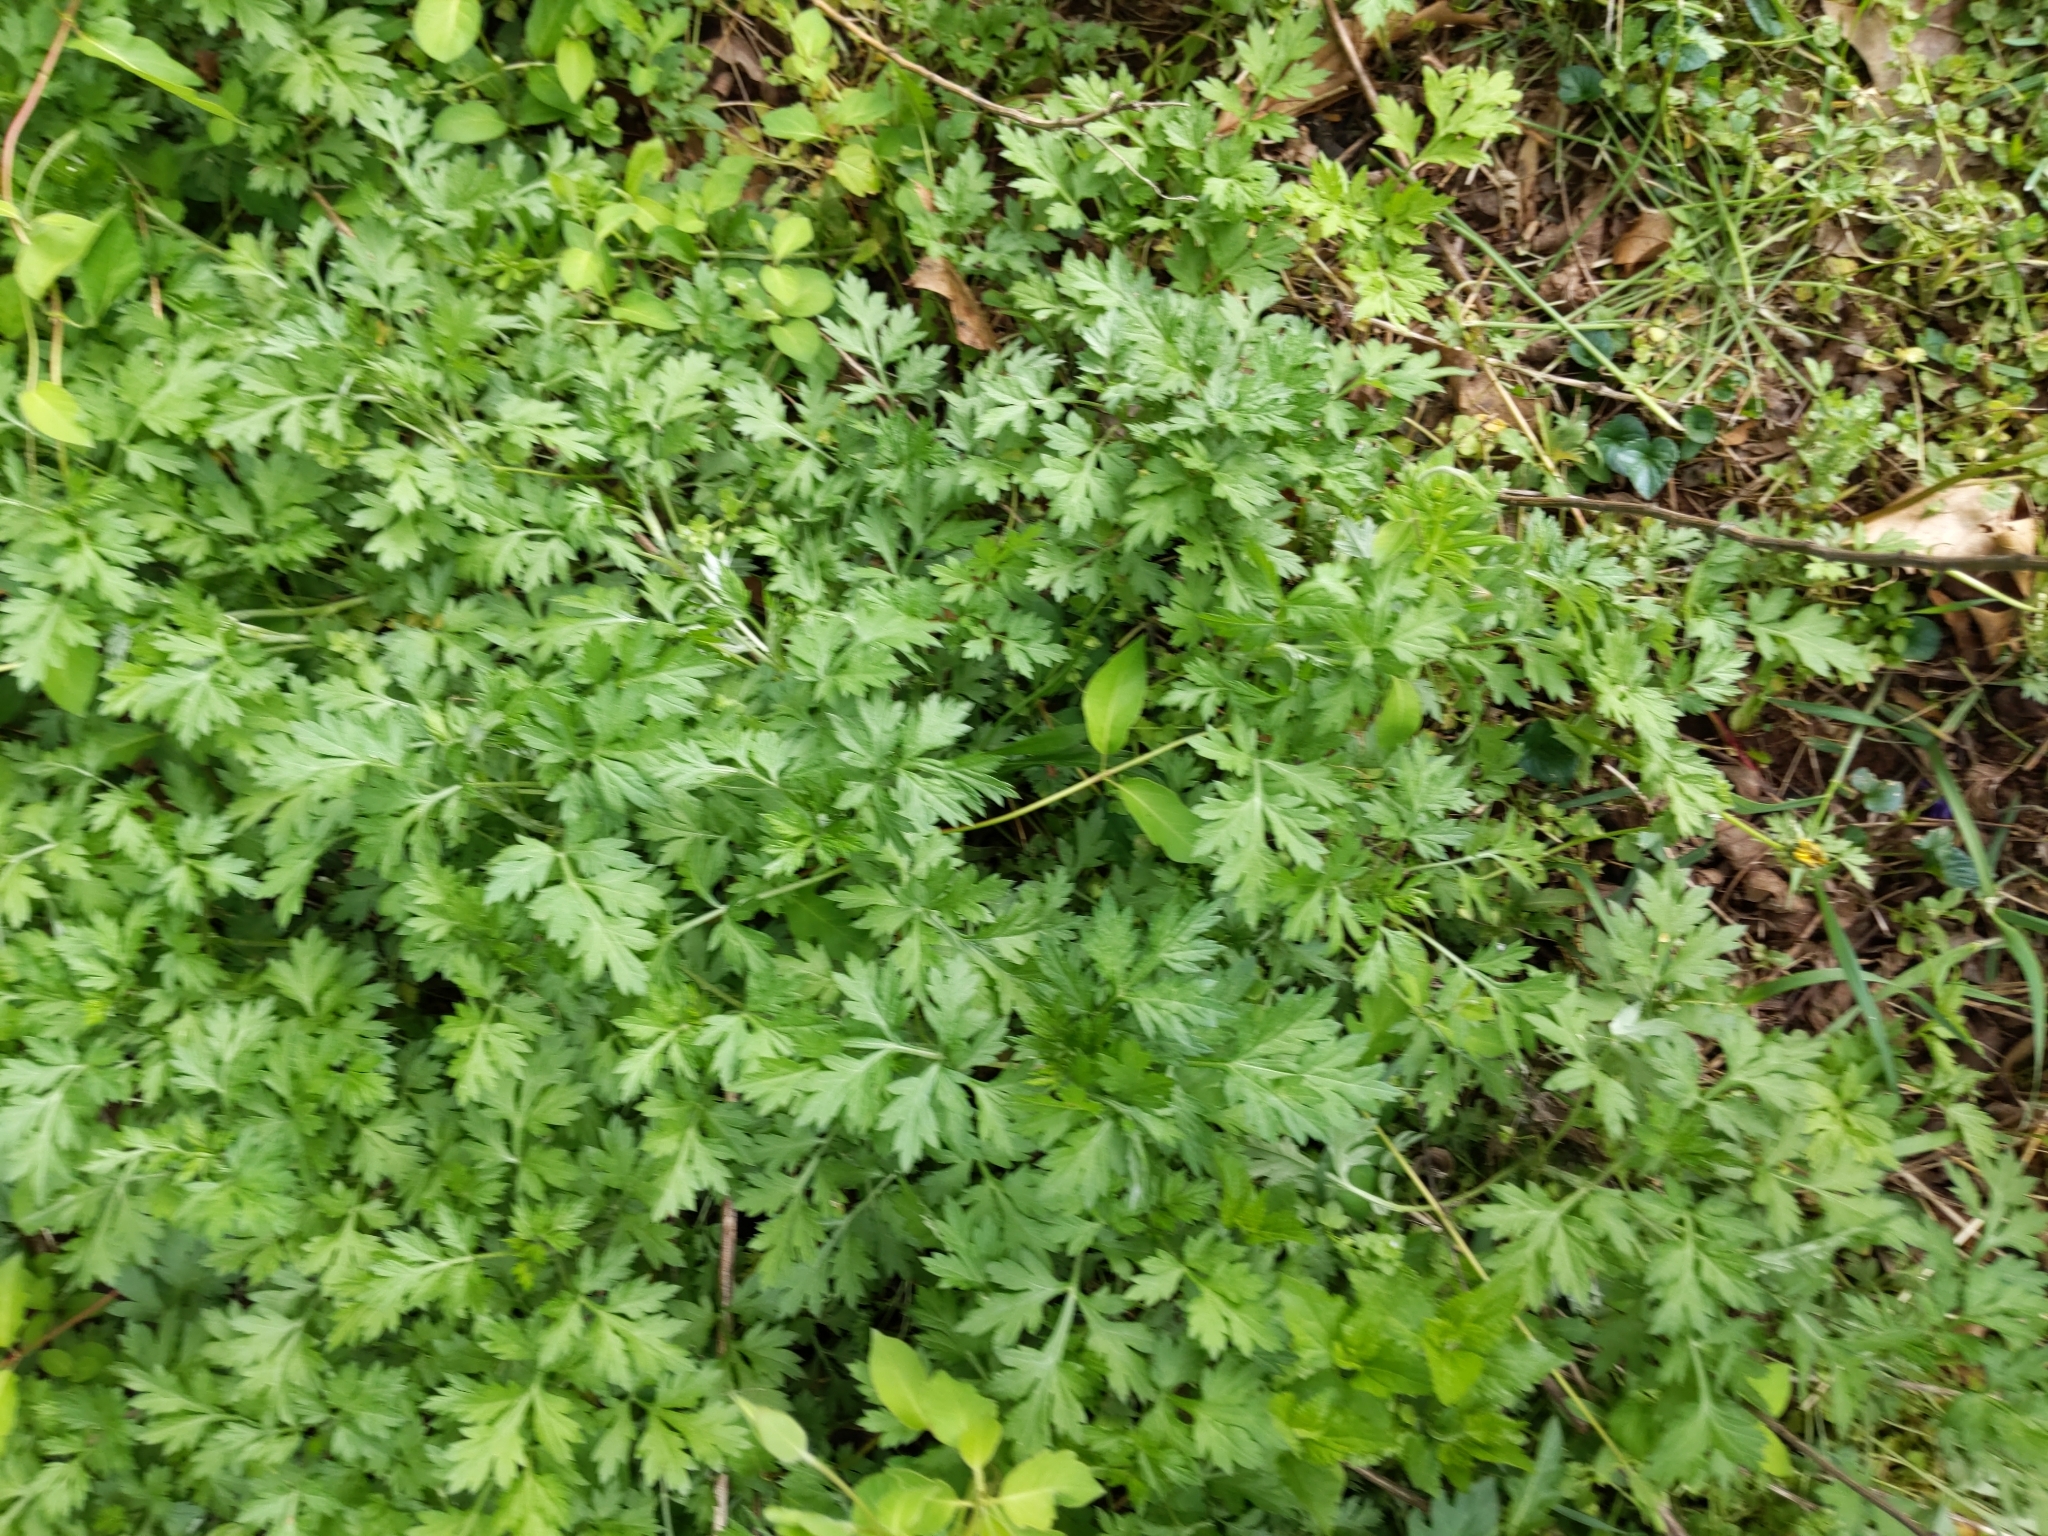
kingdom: Plantae
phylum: Tracheophyta
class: Magnoliopsida
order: Asterales
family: Asteraceae
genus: Artemisia
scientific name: Artemisia vulgaris
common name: Mugwort
